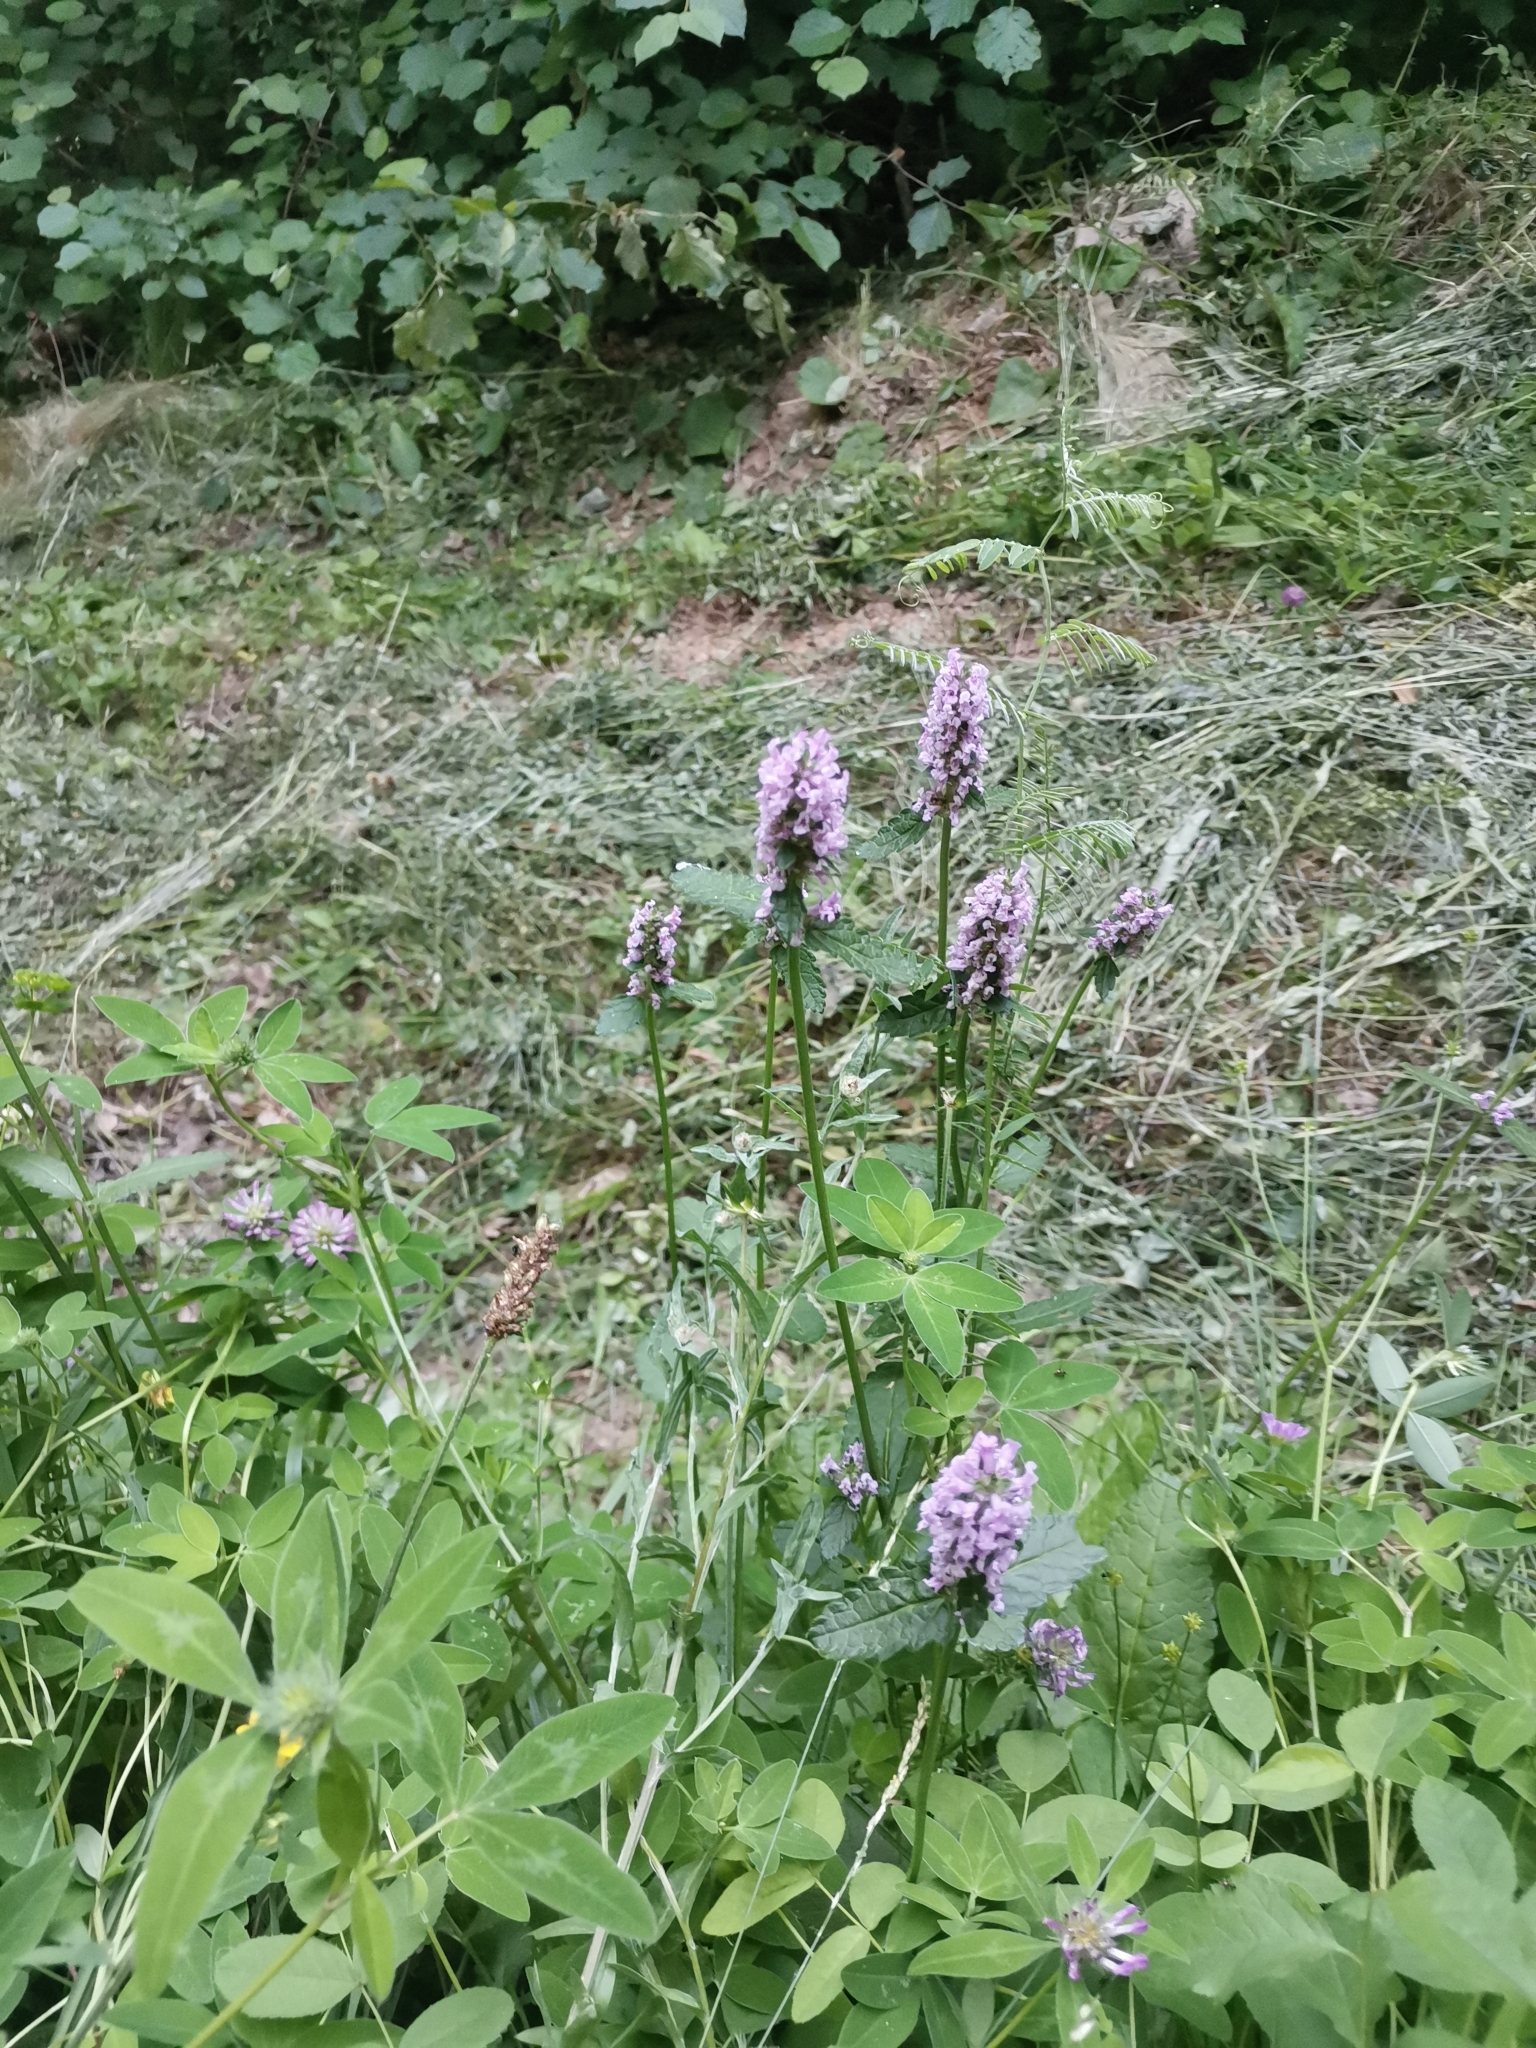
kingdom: Plantae
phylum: Tracheophyta
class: Magnoliopsida
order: Lamiales
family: Lamiaceae
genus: Betonica
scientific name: Betonica officinalis
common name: Bishop's-wort
